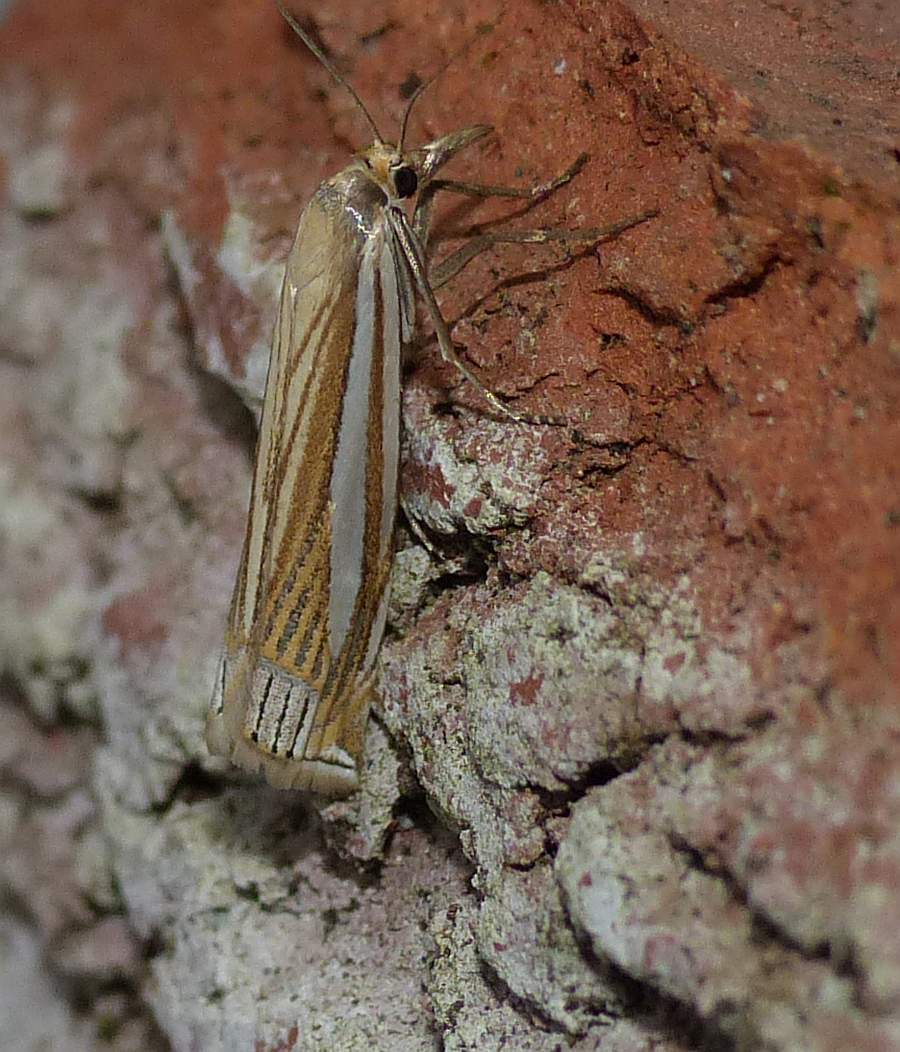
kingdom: Animalia
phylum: Arthropoda
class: Insecta
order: Lepidoptera
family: Crambidae
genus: Crambus
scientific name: Crambus laqueatellus
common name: Eastern grass-veneer
